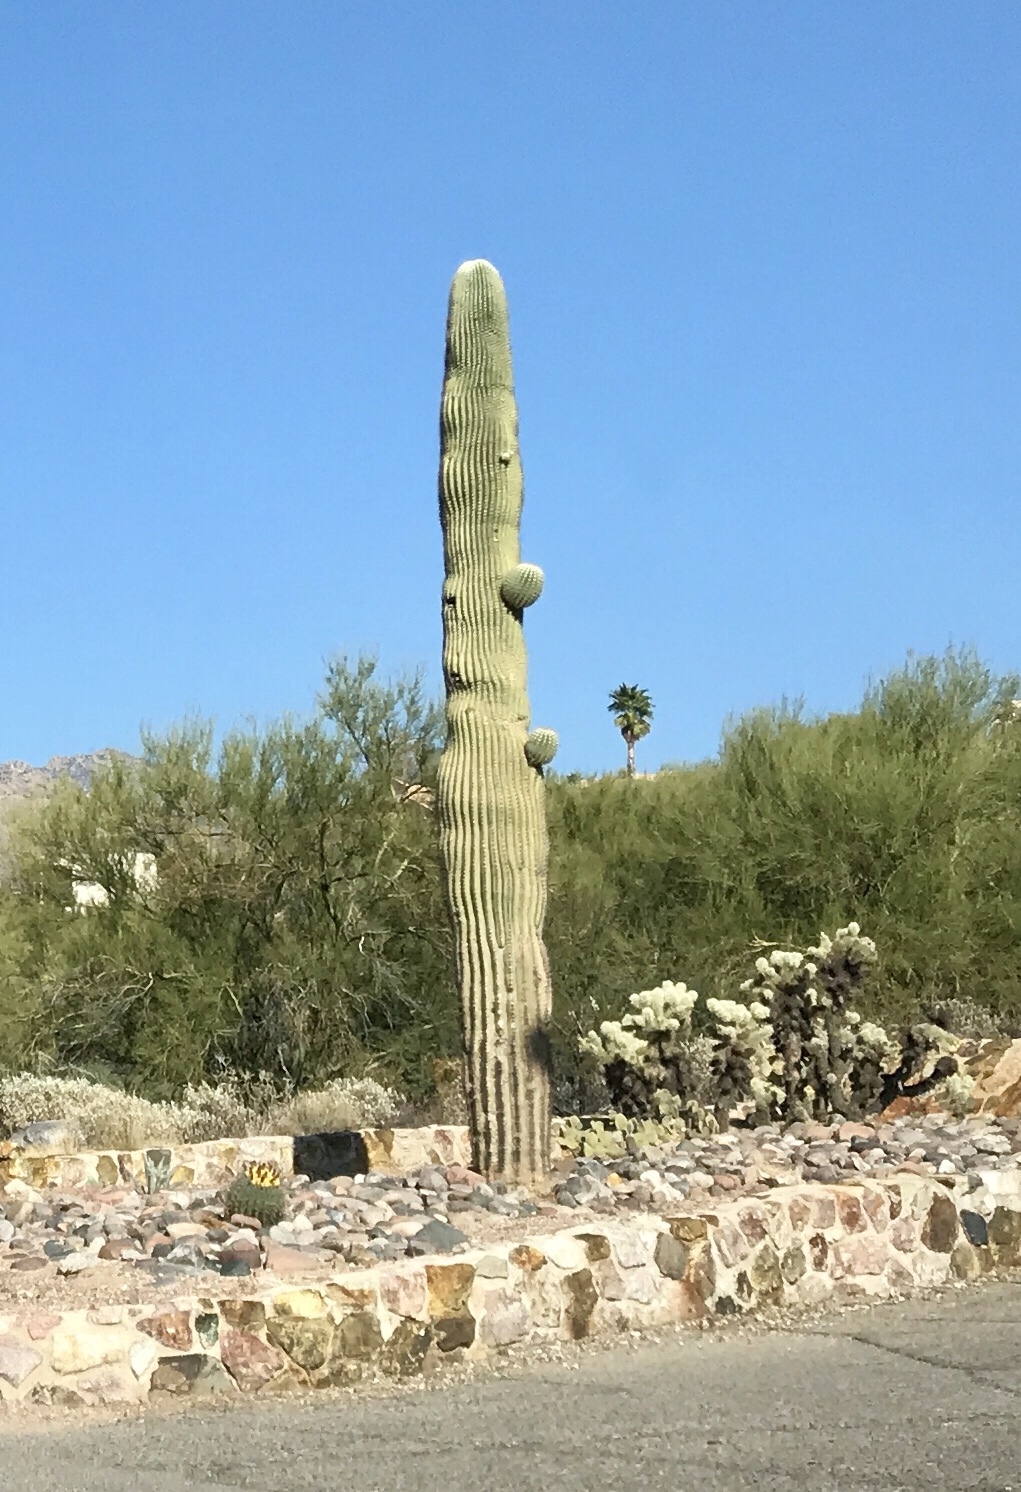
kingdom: Plantae
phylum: Tracheophyta
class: Magnoliopsida
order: Caryophyllales
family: Cactaceae
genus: Carnegiea
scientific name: Carnegiea gigantea
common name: Saguaro
